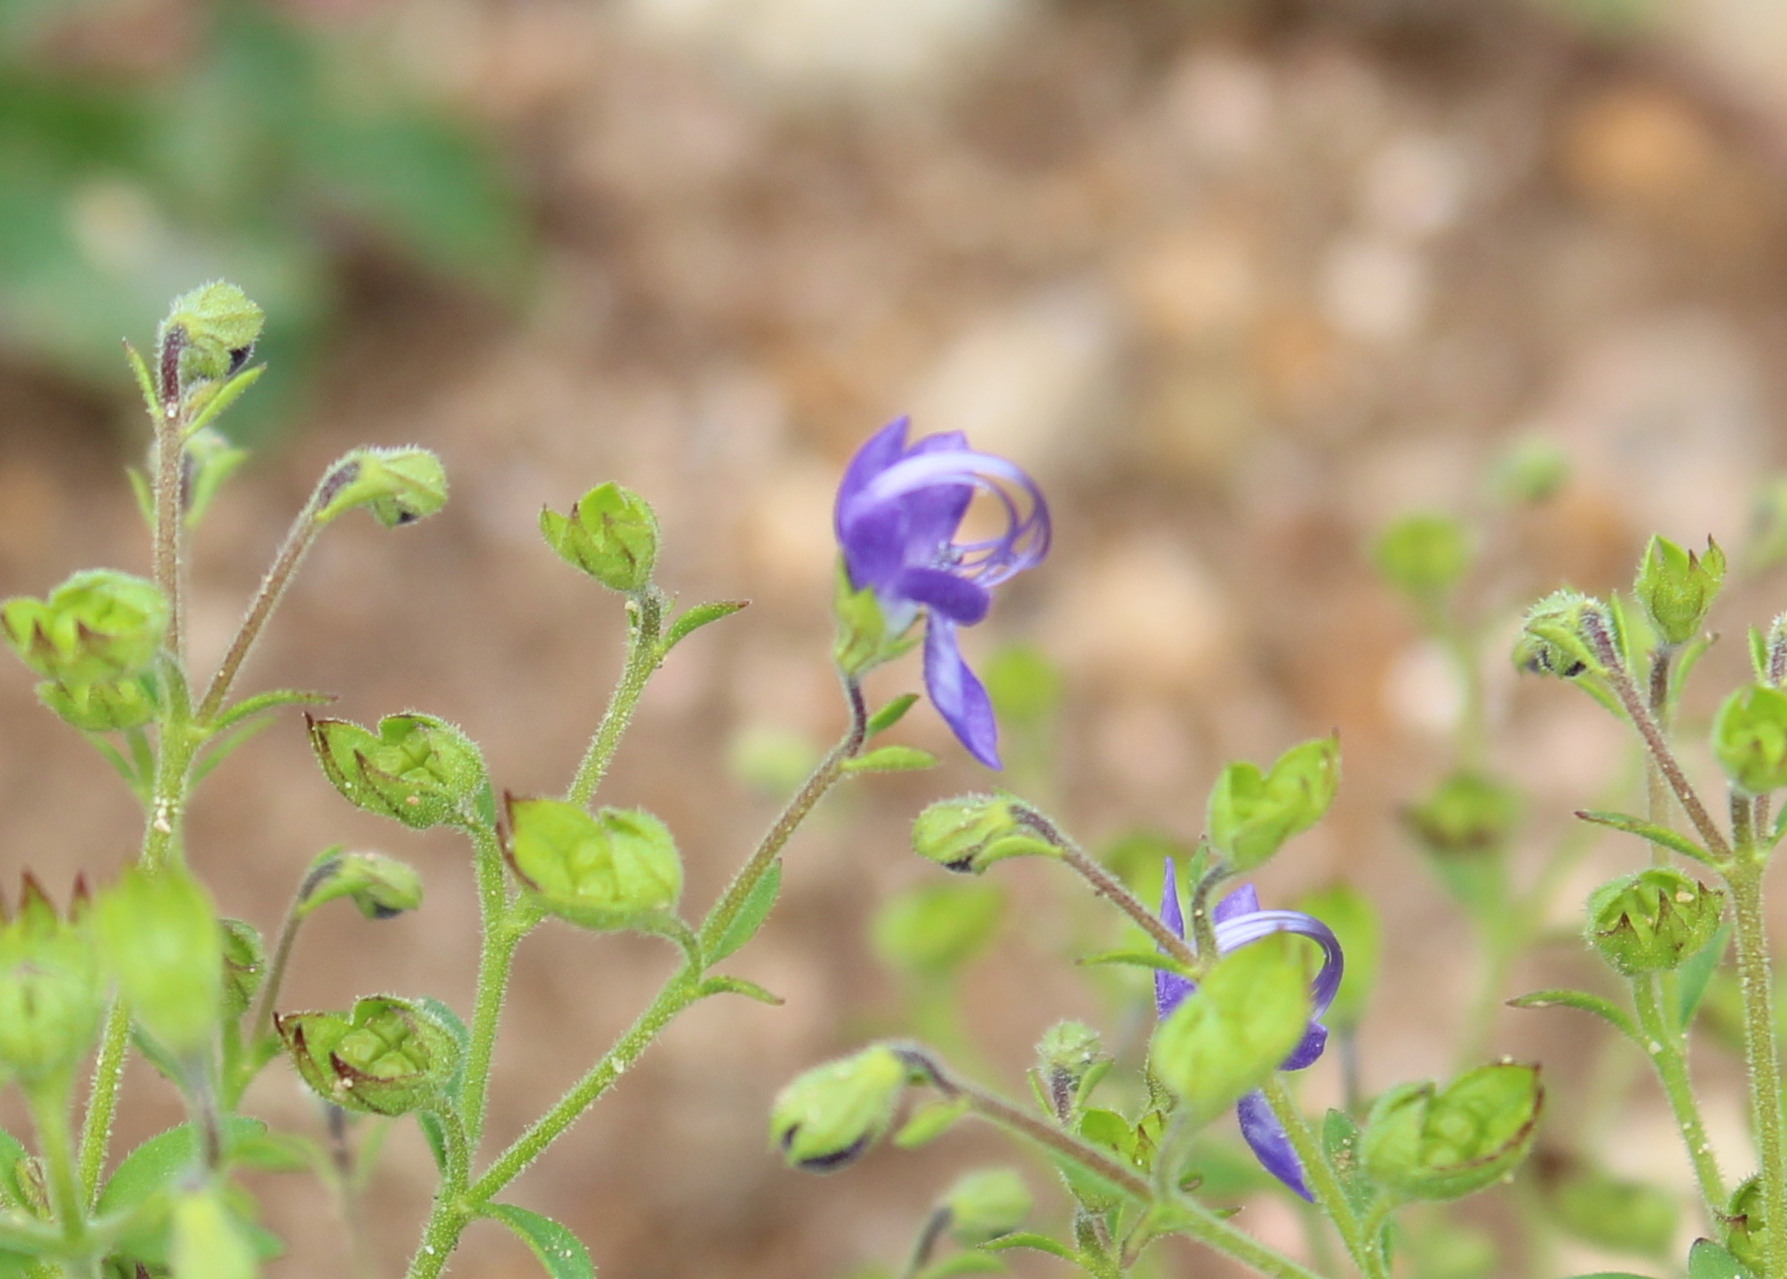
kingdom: Plantae
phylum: Tracheophyta
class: Magnoliopsida
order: Lamiales
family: Lamiaceae
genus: Trichostema
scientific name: Trichostema dichotomum
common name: Bastard pennyroyal
